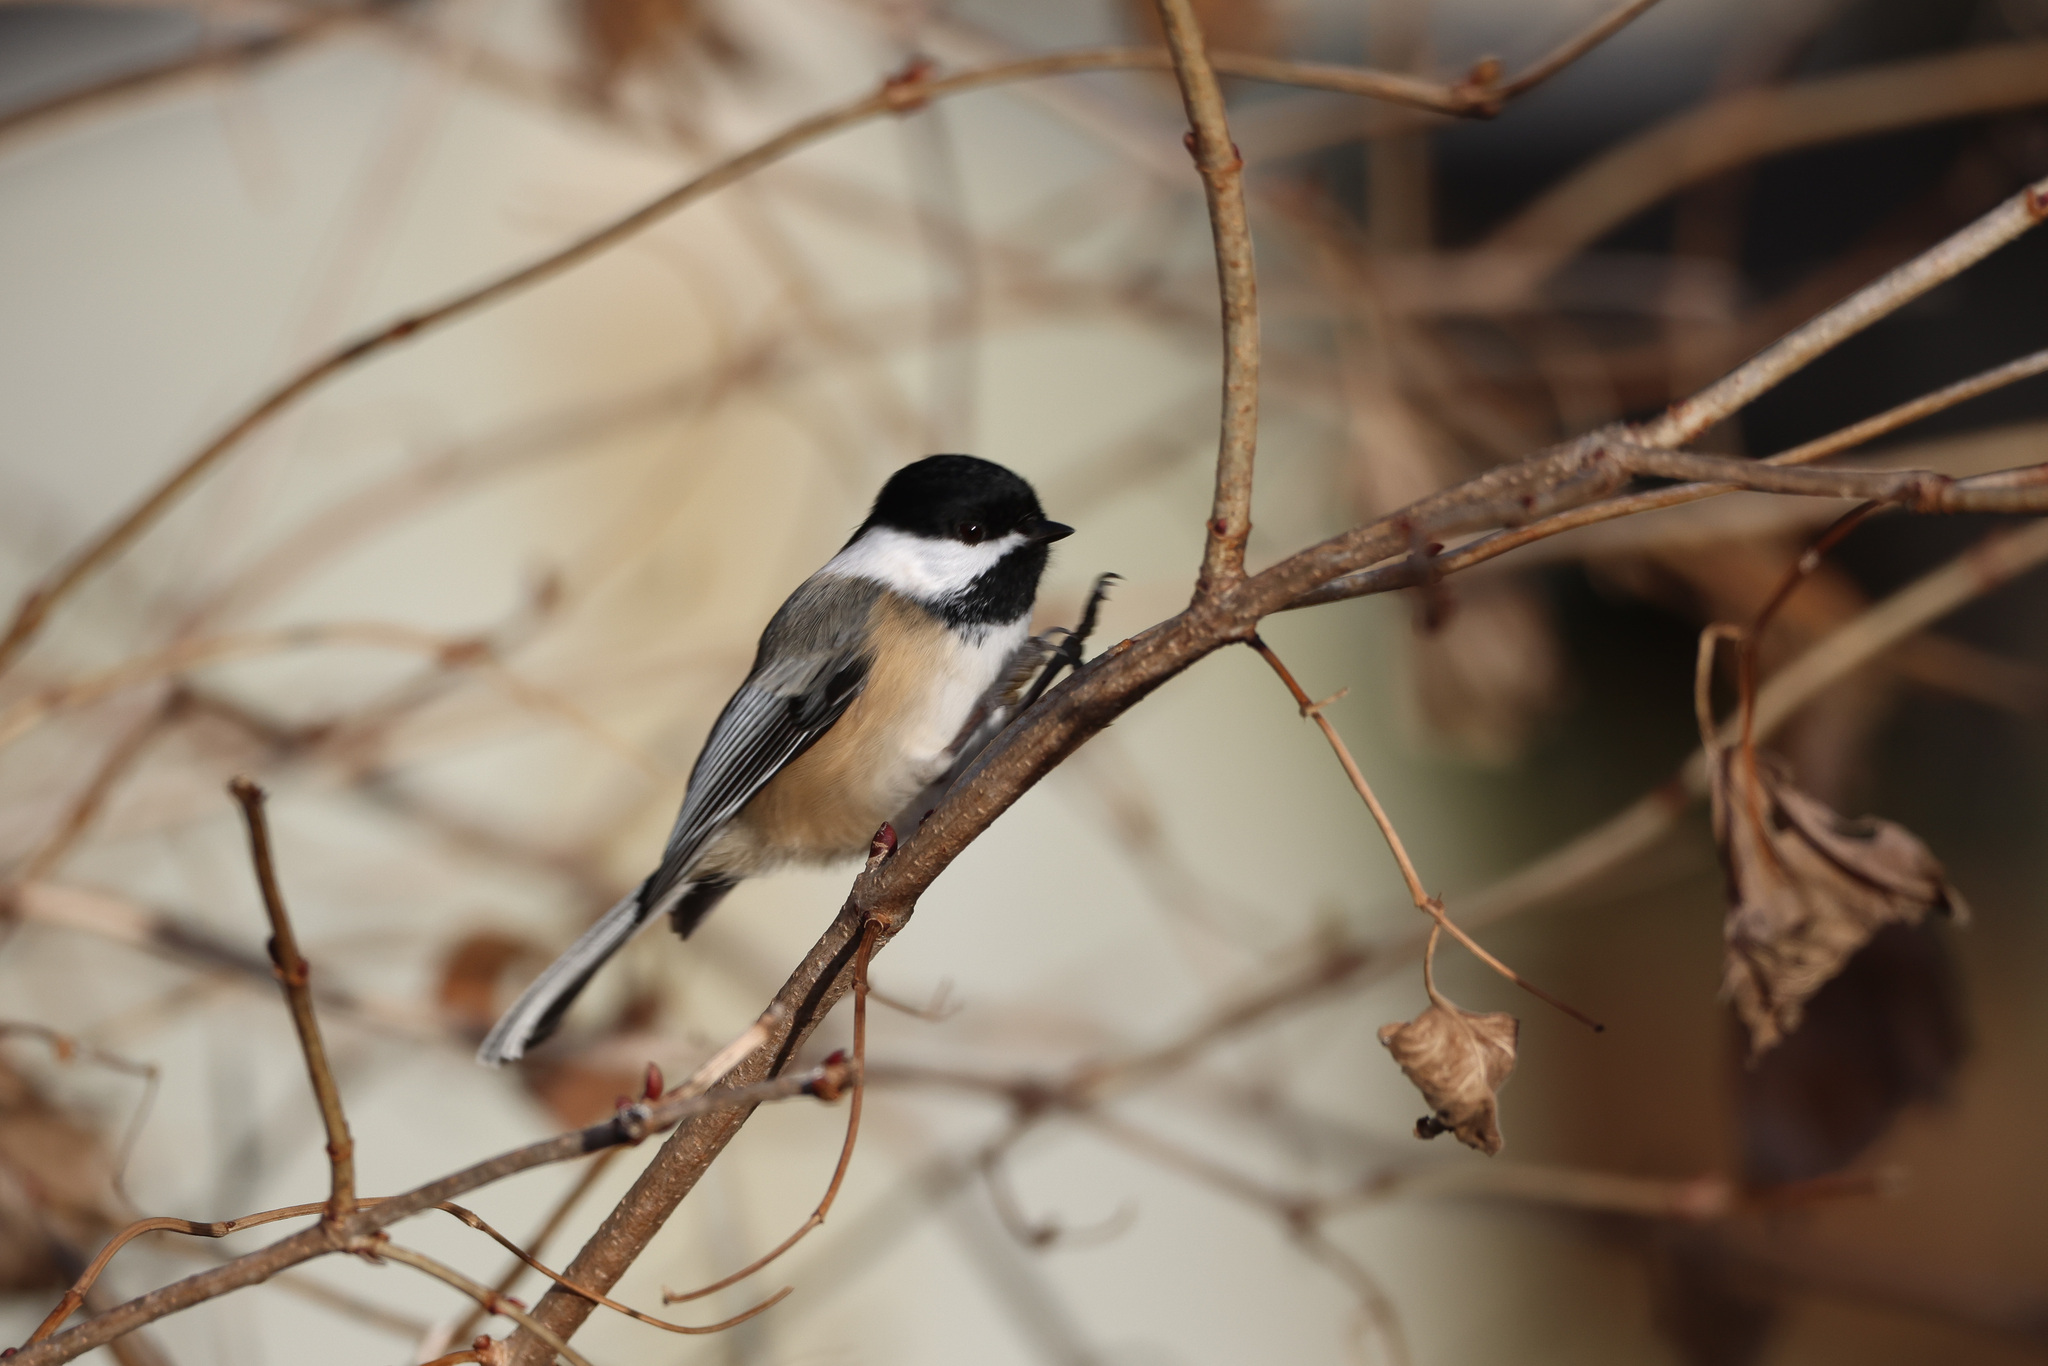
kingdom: Animalia
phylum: Chordata
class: Aves
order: Passeriformes
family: Paridae
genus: Poecile
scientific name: Poecile atricapillus
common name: Black-capped chickadee
